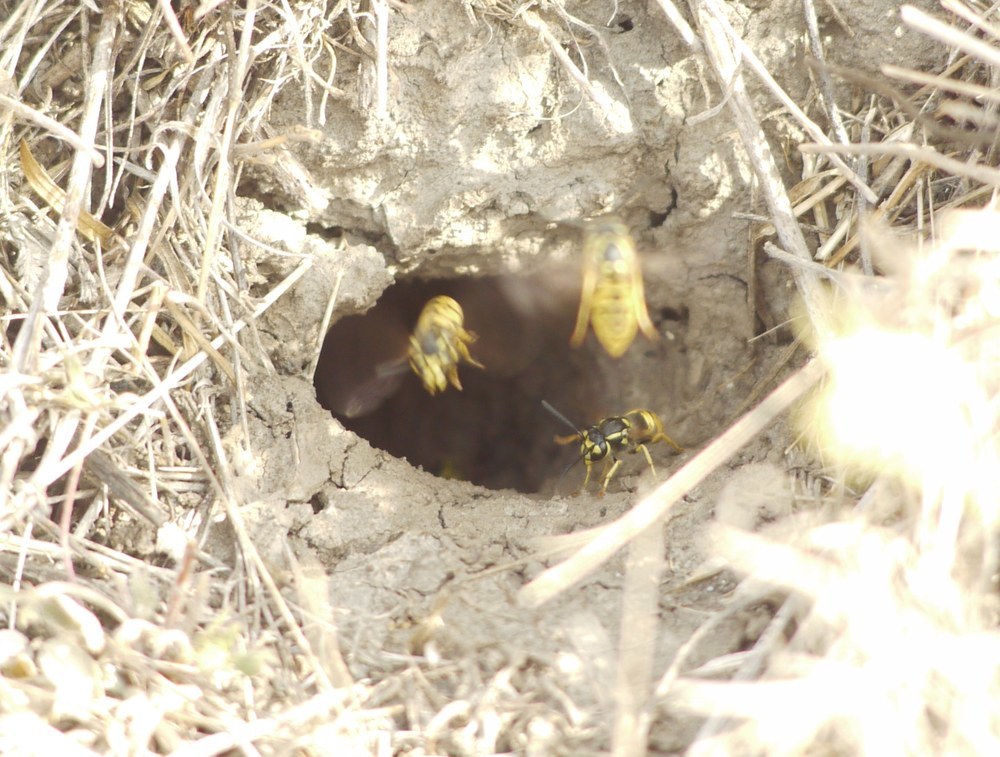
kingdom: Animalia
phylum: Arthropoda
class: Insecta
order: Hymenoptera
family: Vespidae
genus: Vespula
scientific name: Vespula germanica
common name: German wasp
